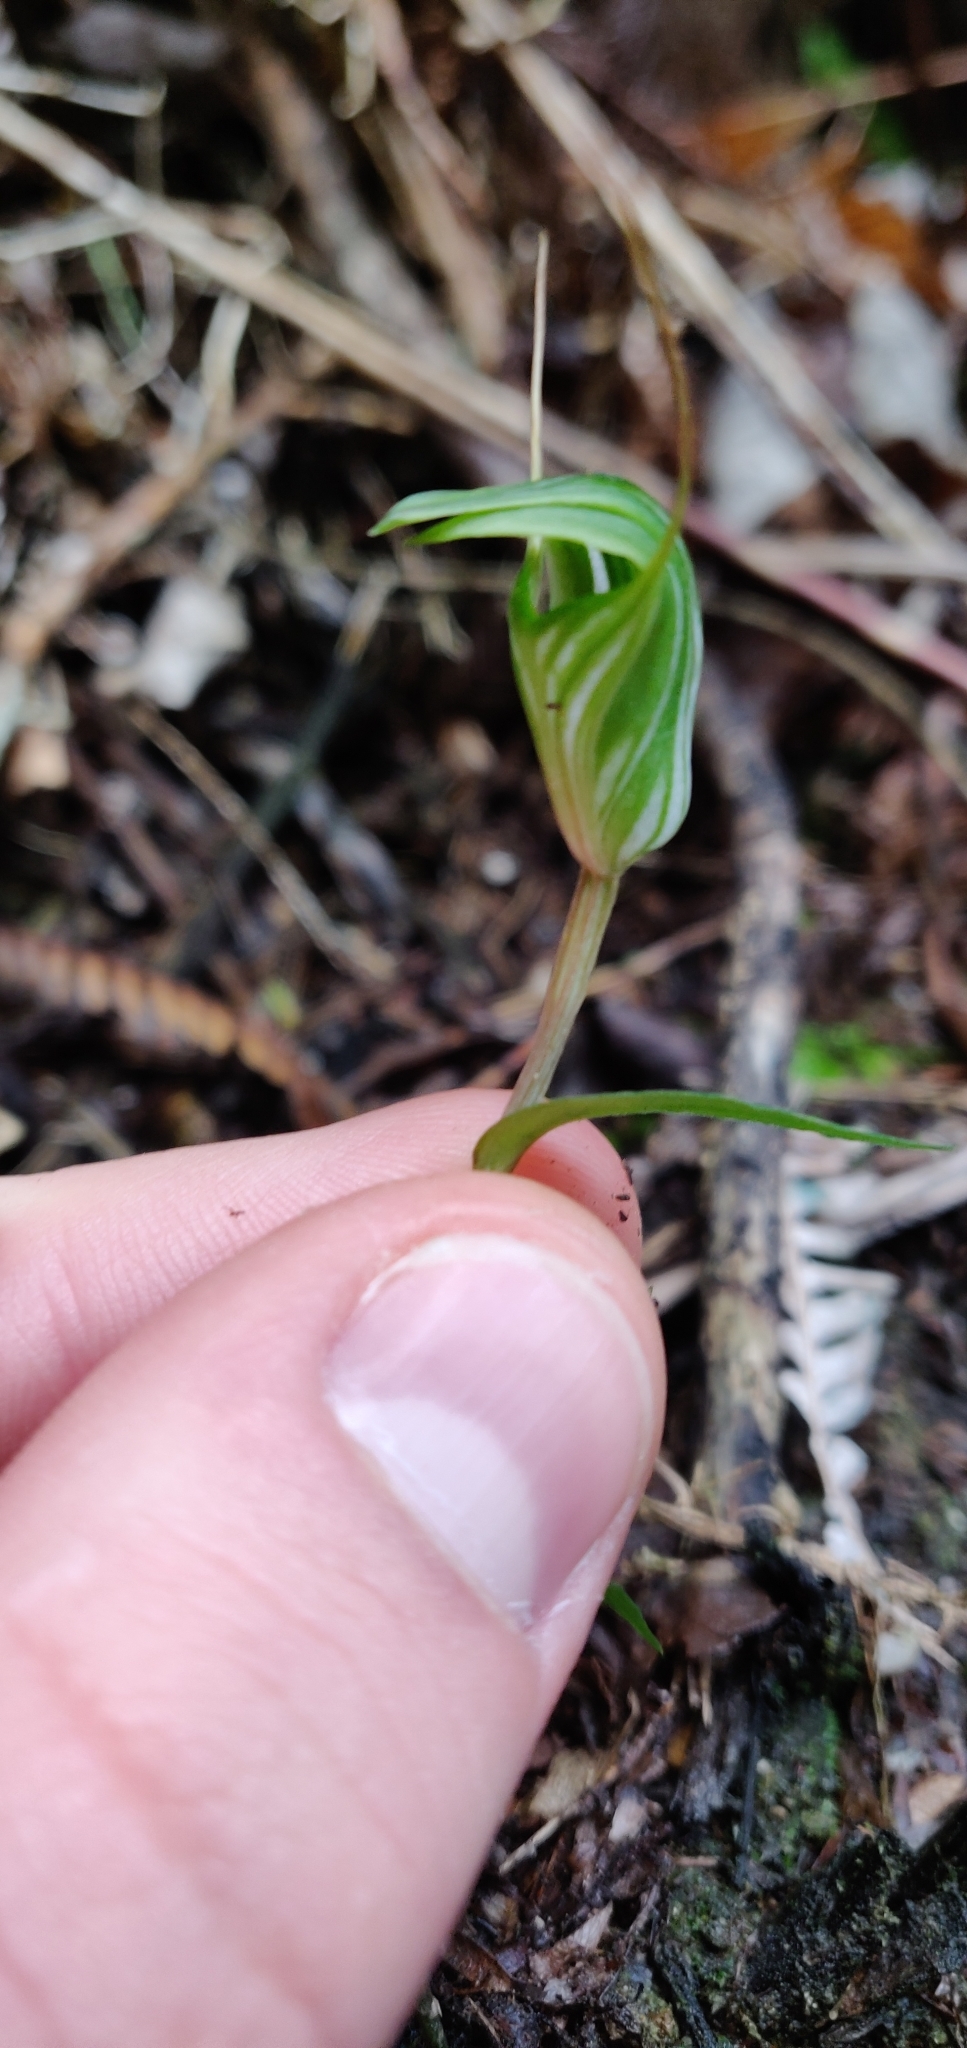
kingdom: Plantae
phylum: Tracheophyta
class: Liliopsida
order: Asparagales
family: Orchidaceae
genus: Pterostylis
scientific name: Pterostylis alobula
